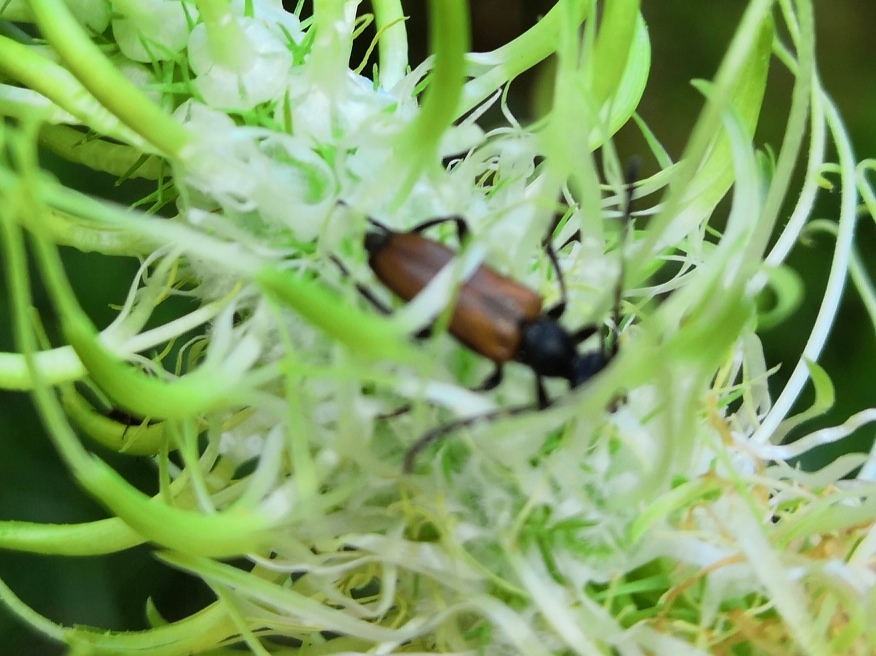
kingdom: Animalia
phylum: Arthropoda
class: Insecta
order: Coleoptera
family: Cerambycidae
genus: Paracorymbia
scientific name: Paracorymbia maculicornis
